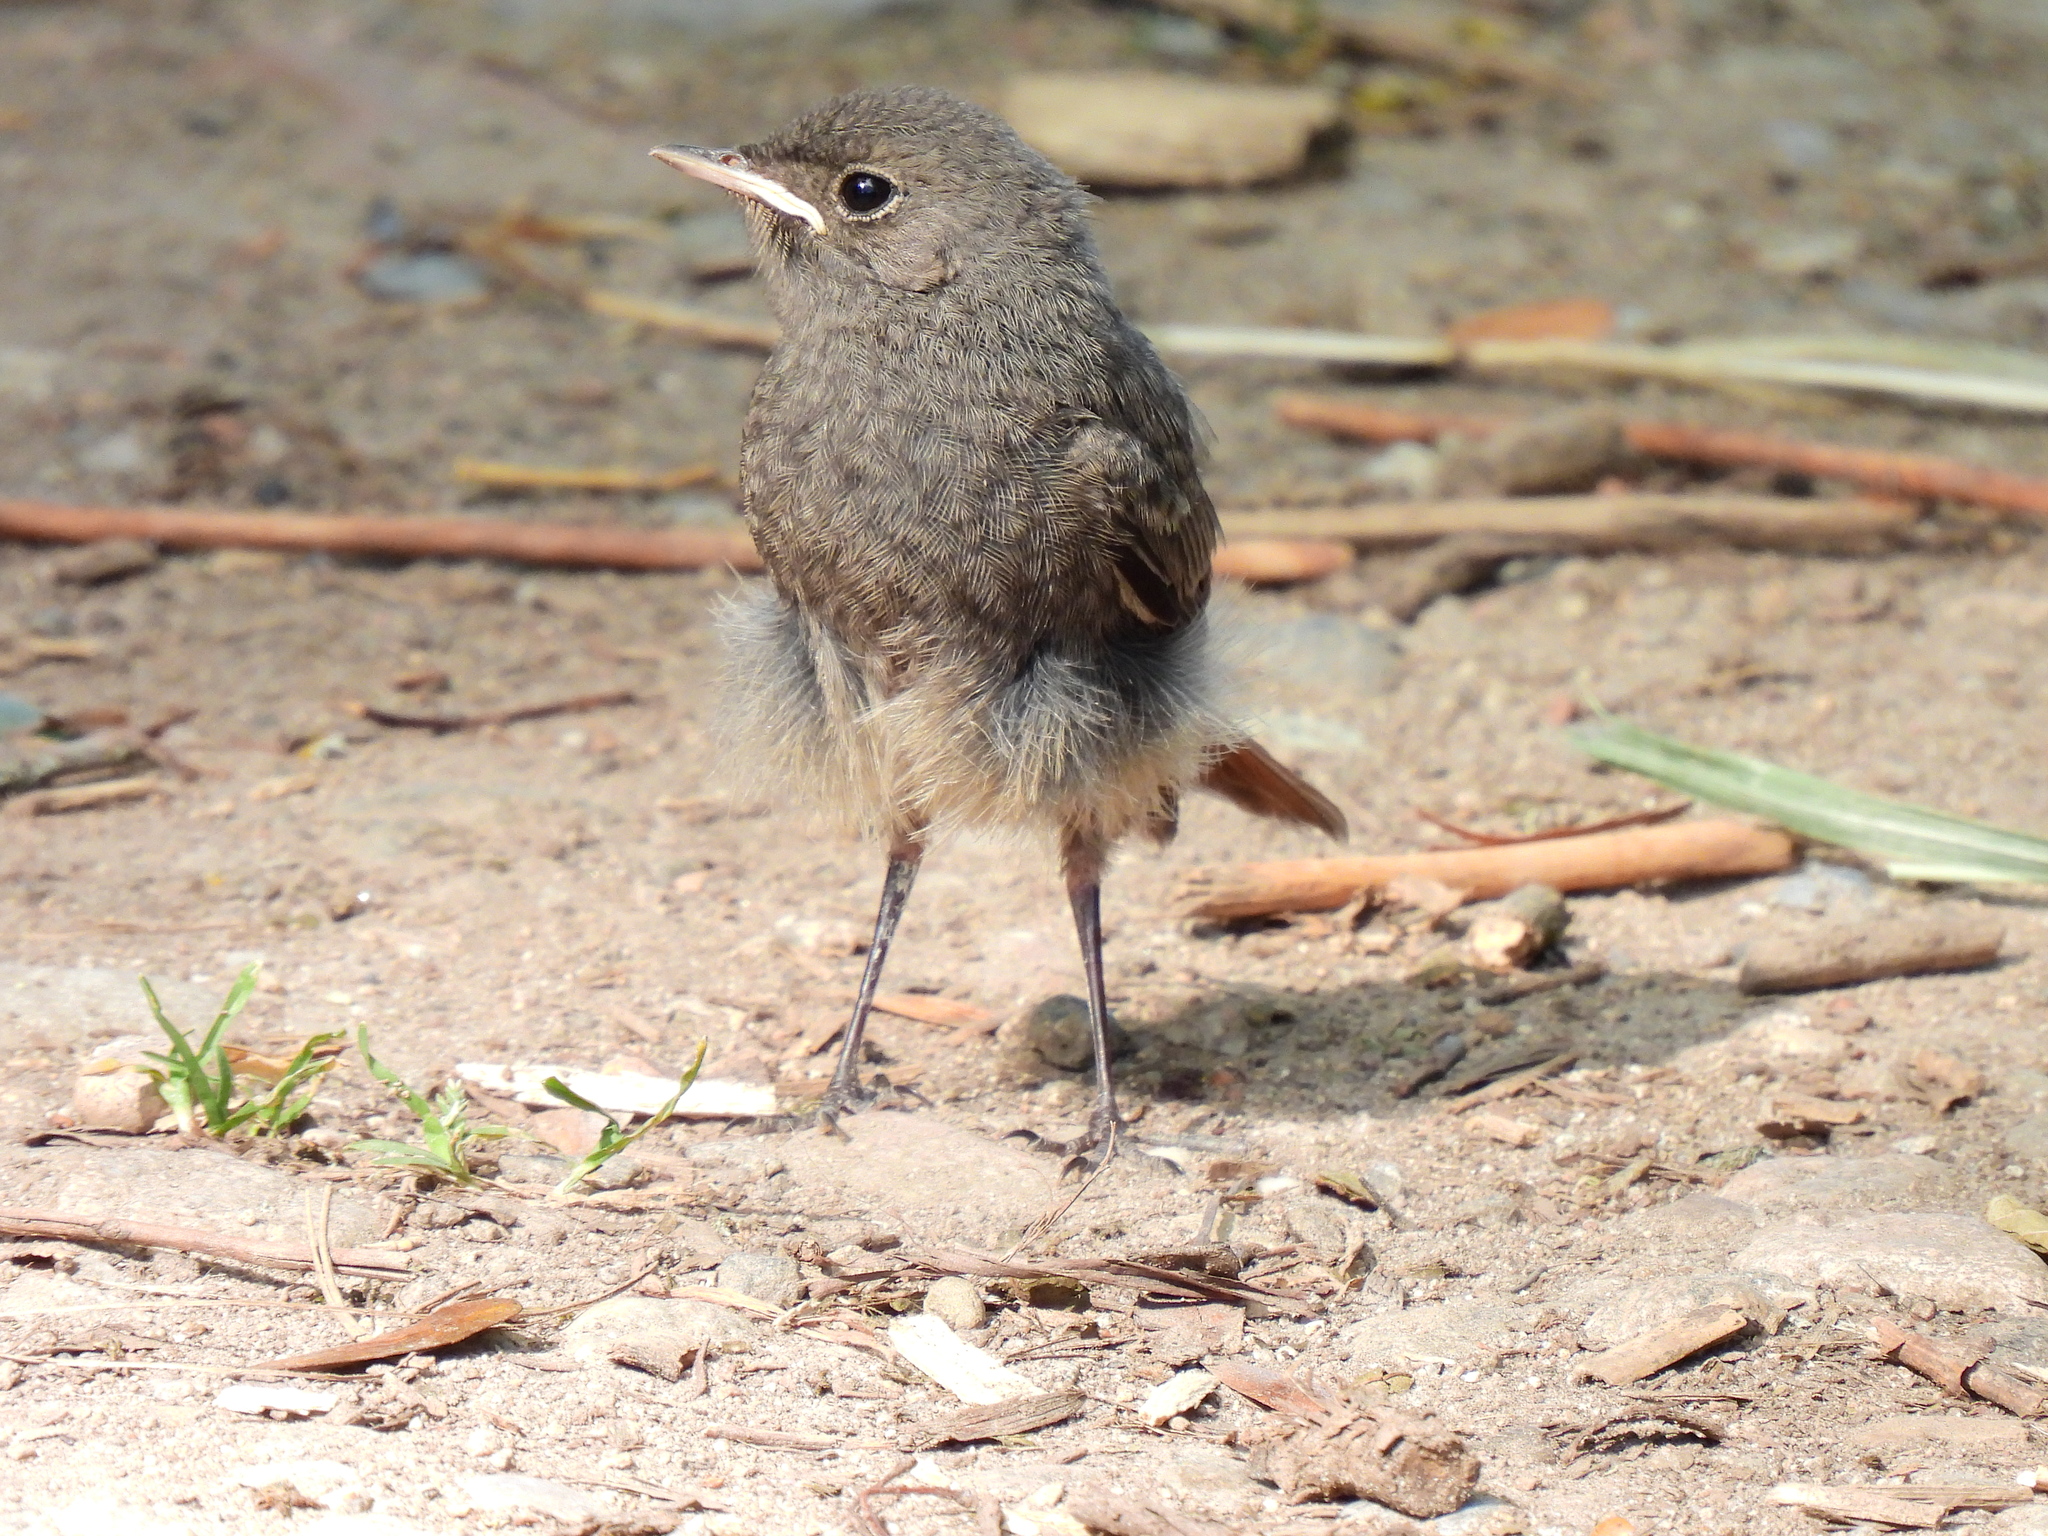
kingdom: Animalia
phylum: Chordata
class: Aves
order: Passeriformes
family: Muscicapidae
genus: Phoenicurus
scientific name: Phoenicurus ochruros
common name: Black redstart
